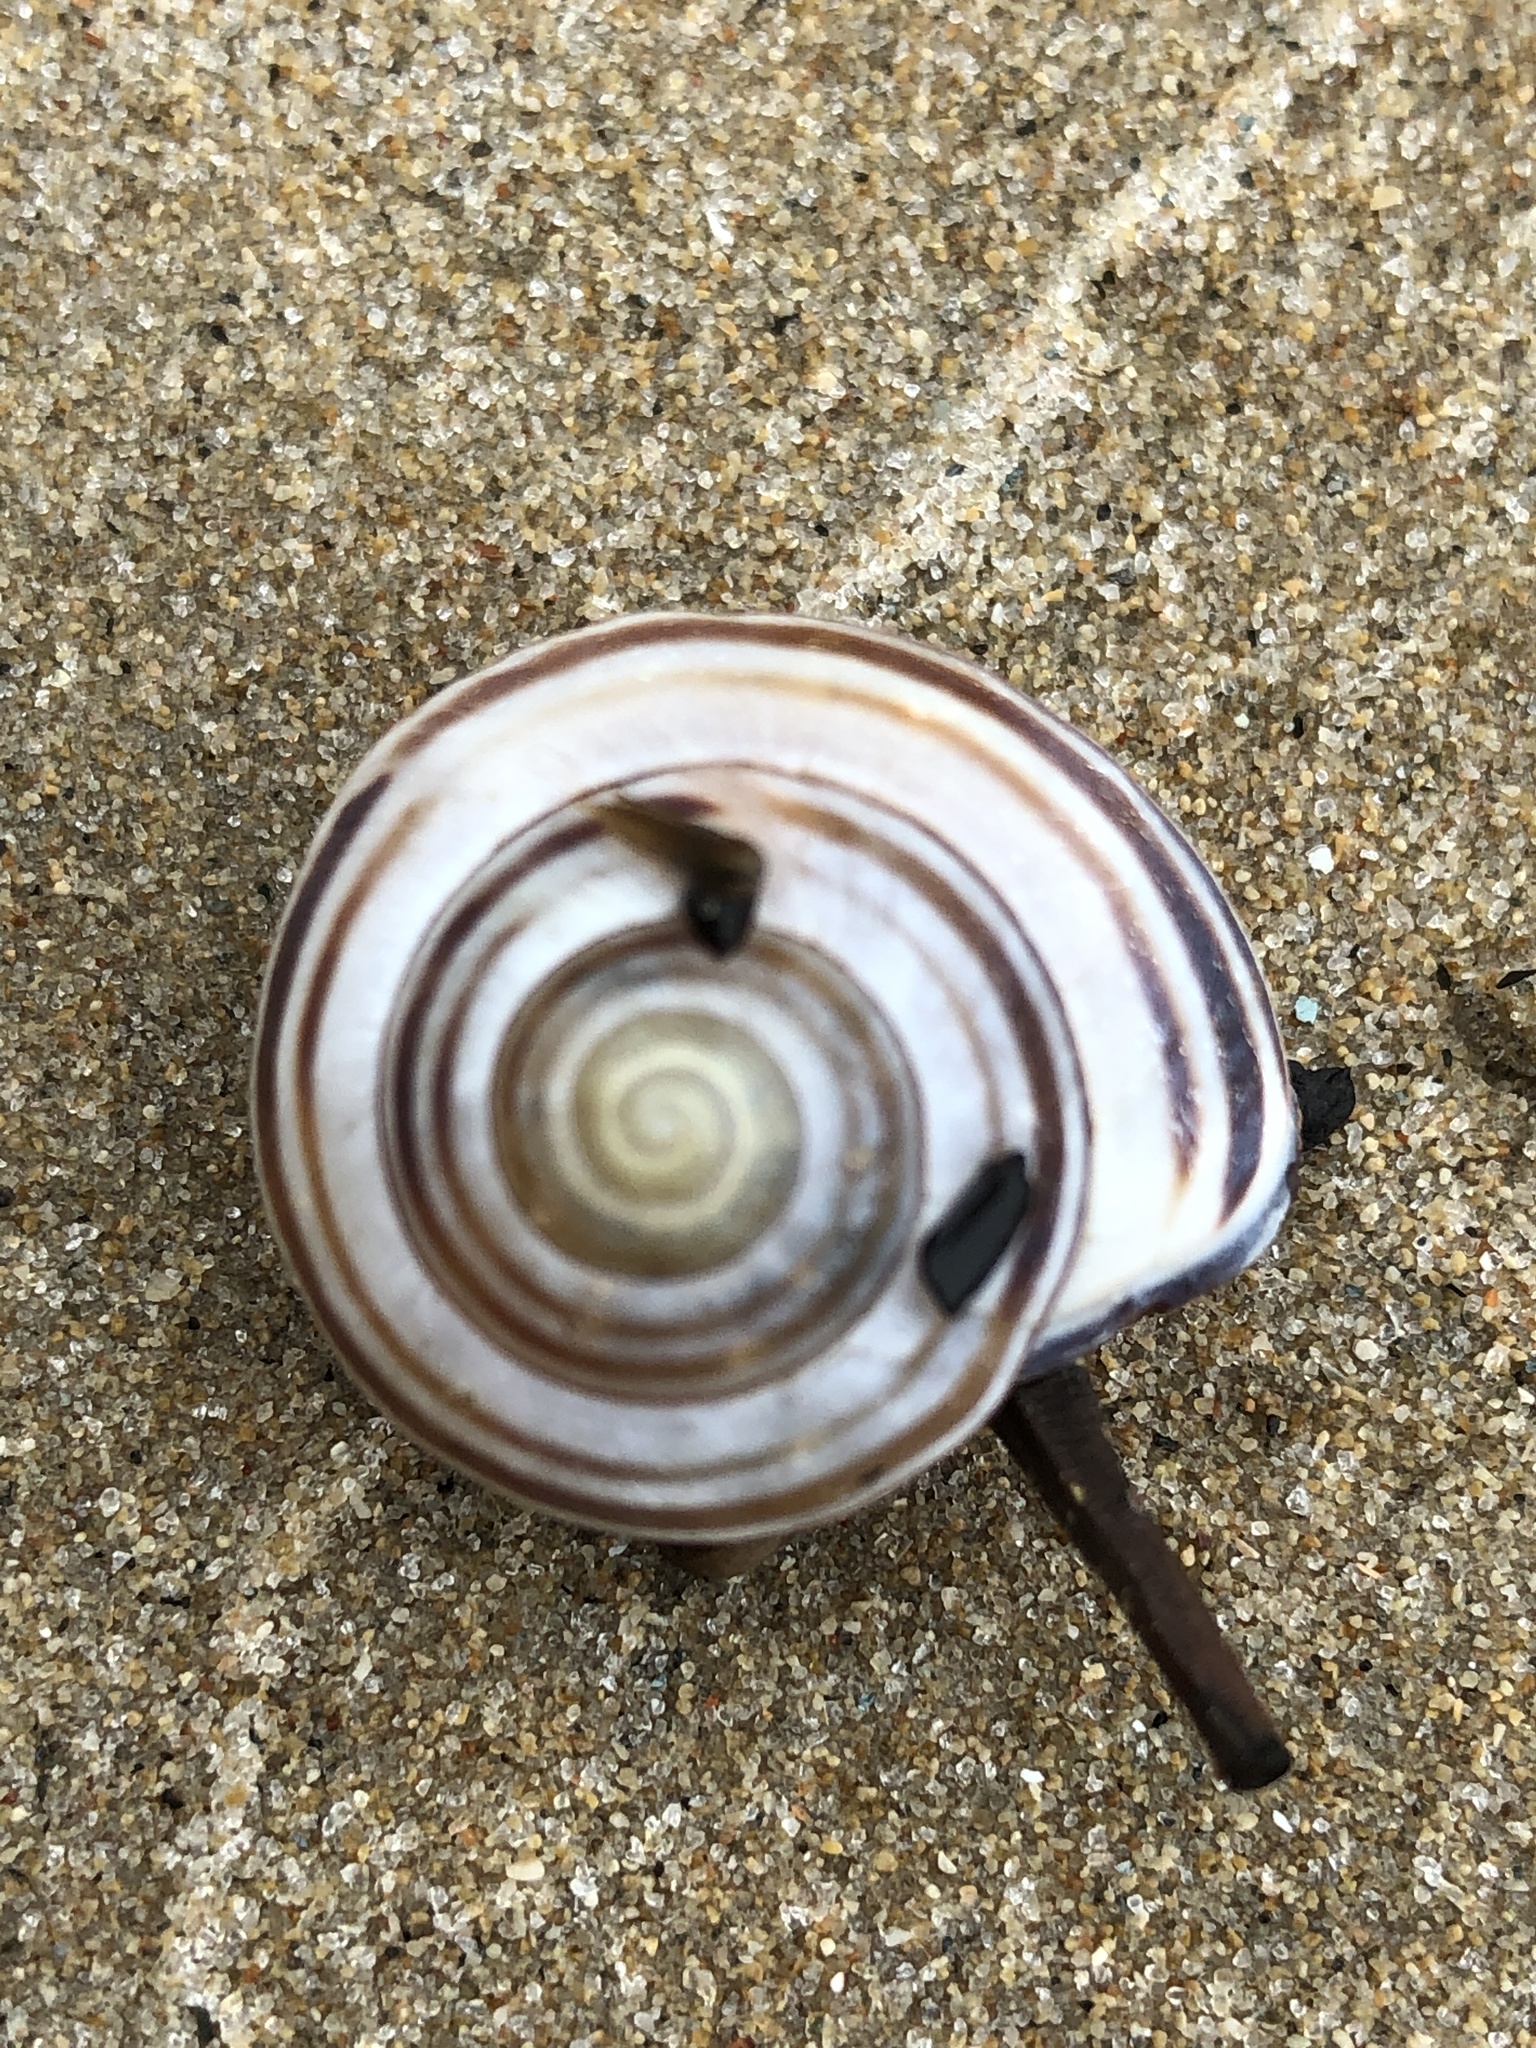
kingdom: Animalia
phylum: Mollusca
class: Gastropoda
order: Stylommatophora
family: Helicidae
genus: Cepaea
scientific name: Cepaea nemoralis
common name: Grovesnail
